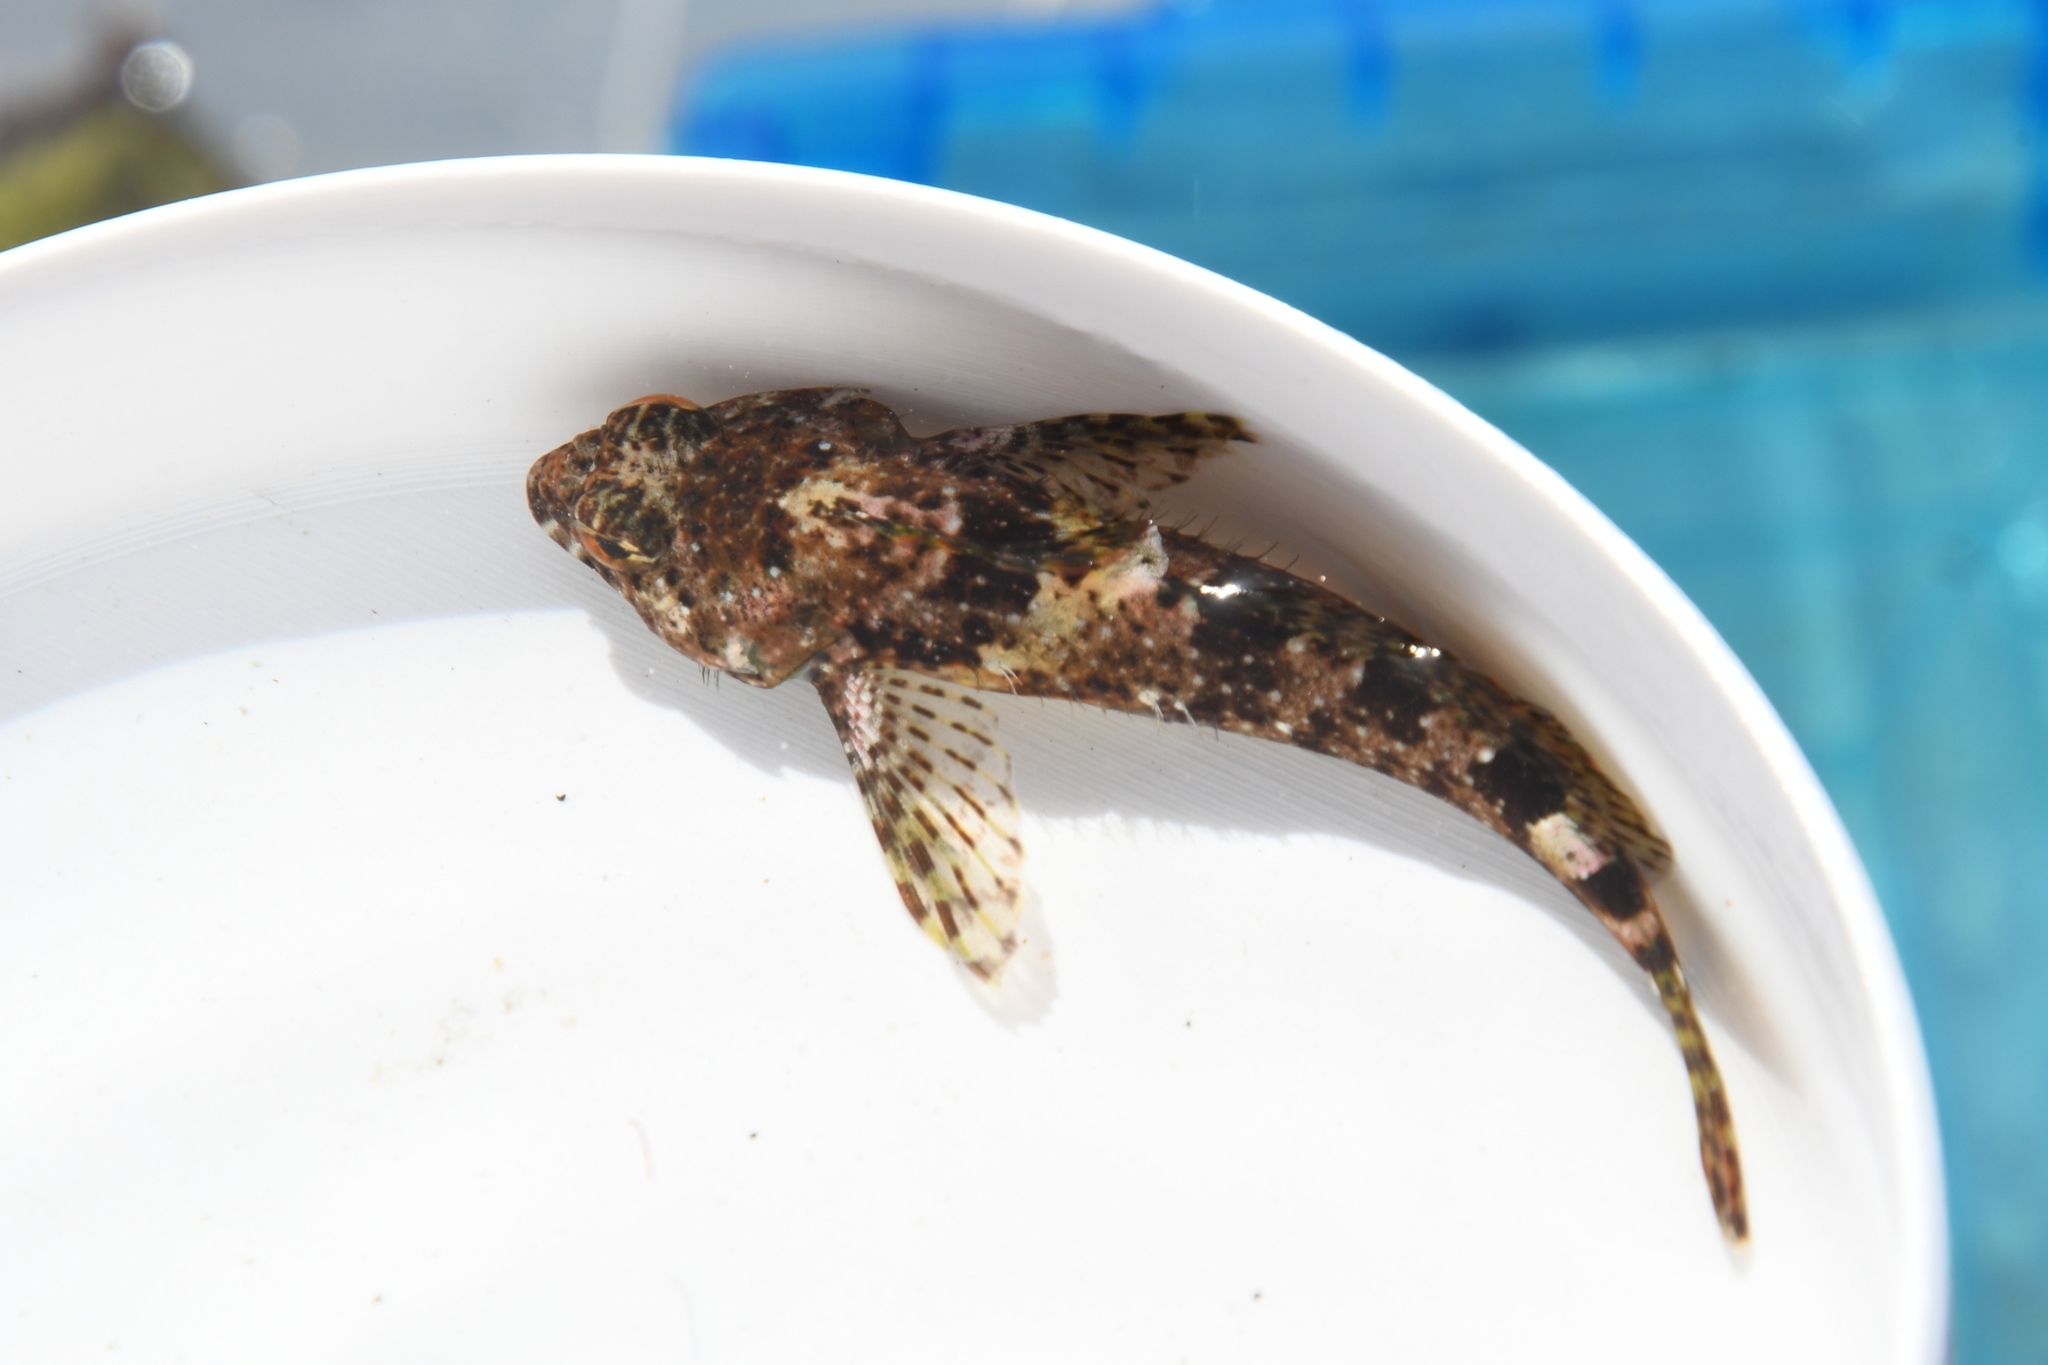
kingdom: Animalia
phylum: Chordata
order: Scorpaeniformes
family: Cottidae
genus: Clinocottus
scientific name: Clinocottus analis
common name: Woolly sculpin
